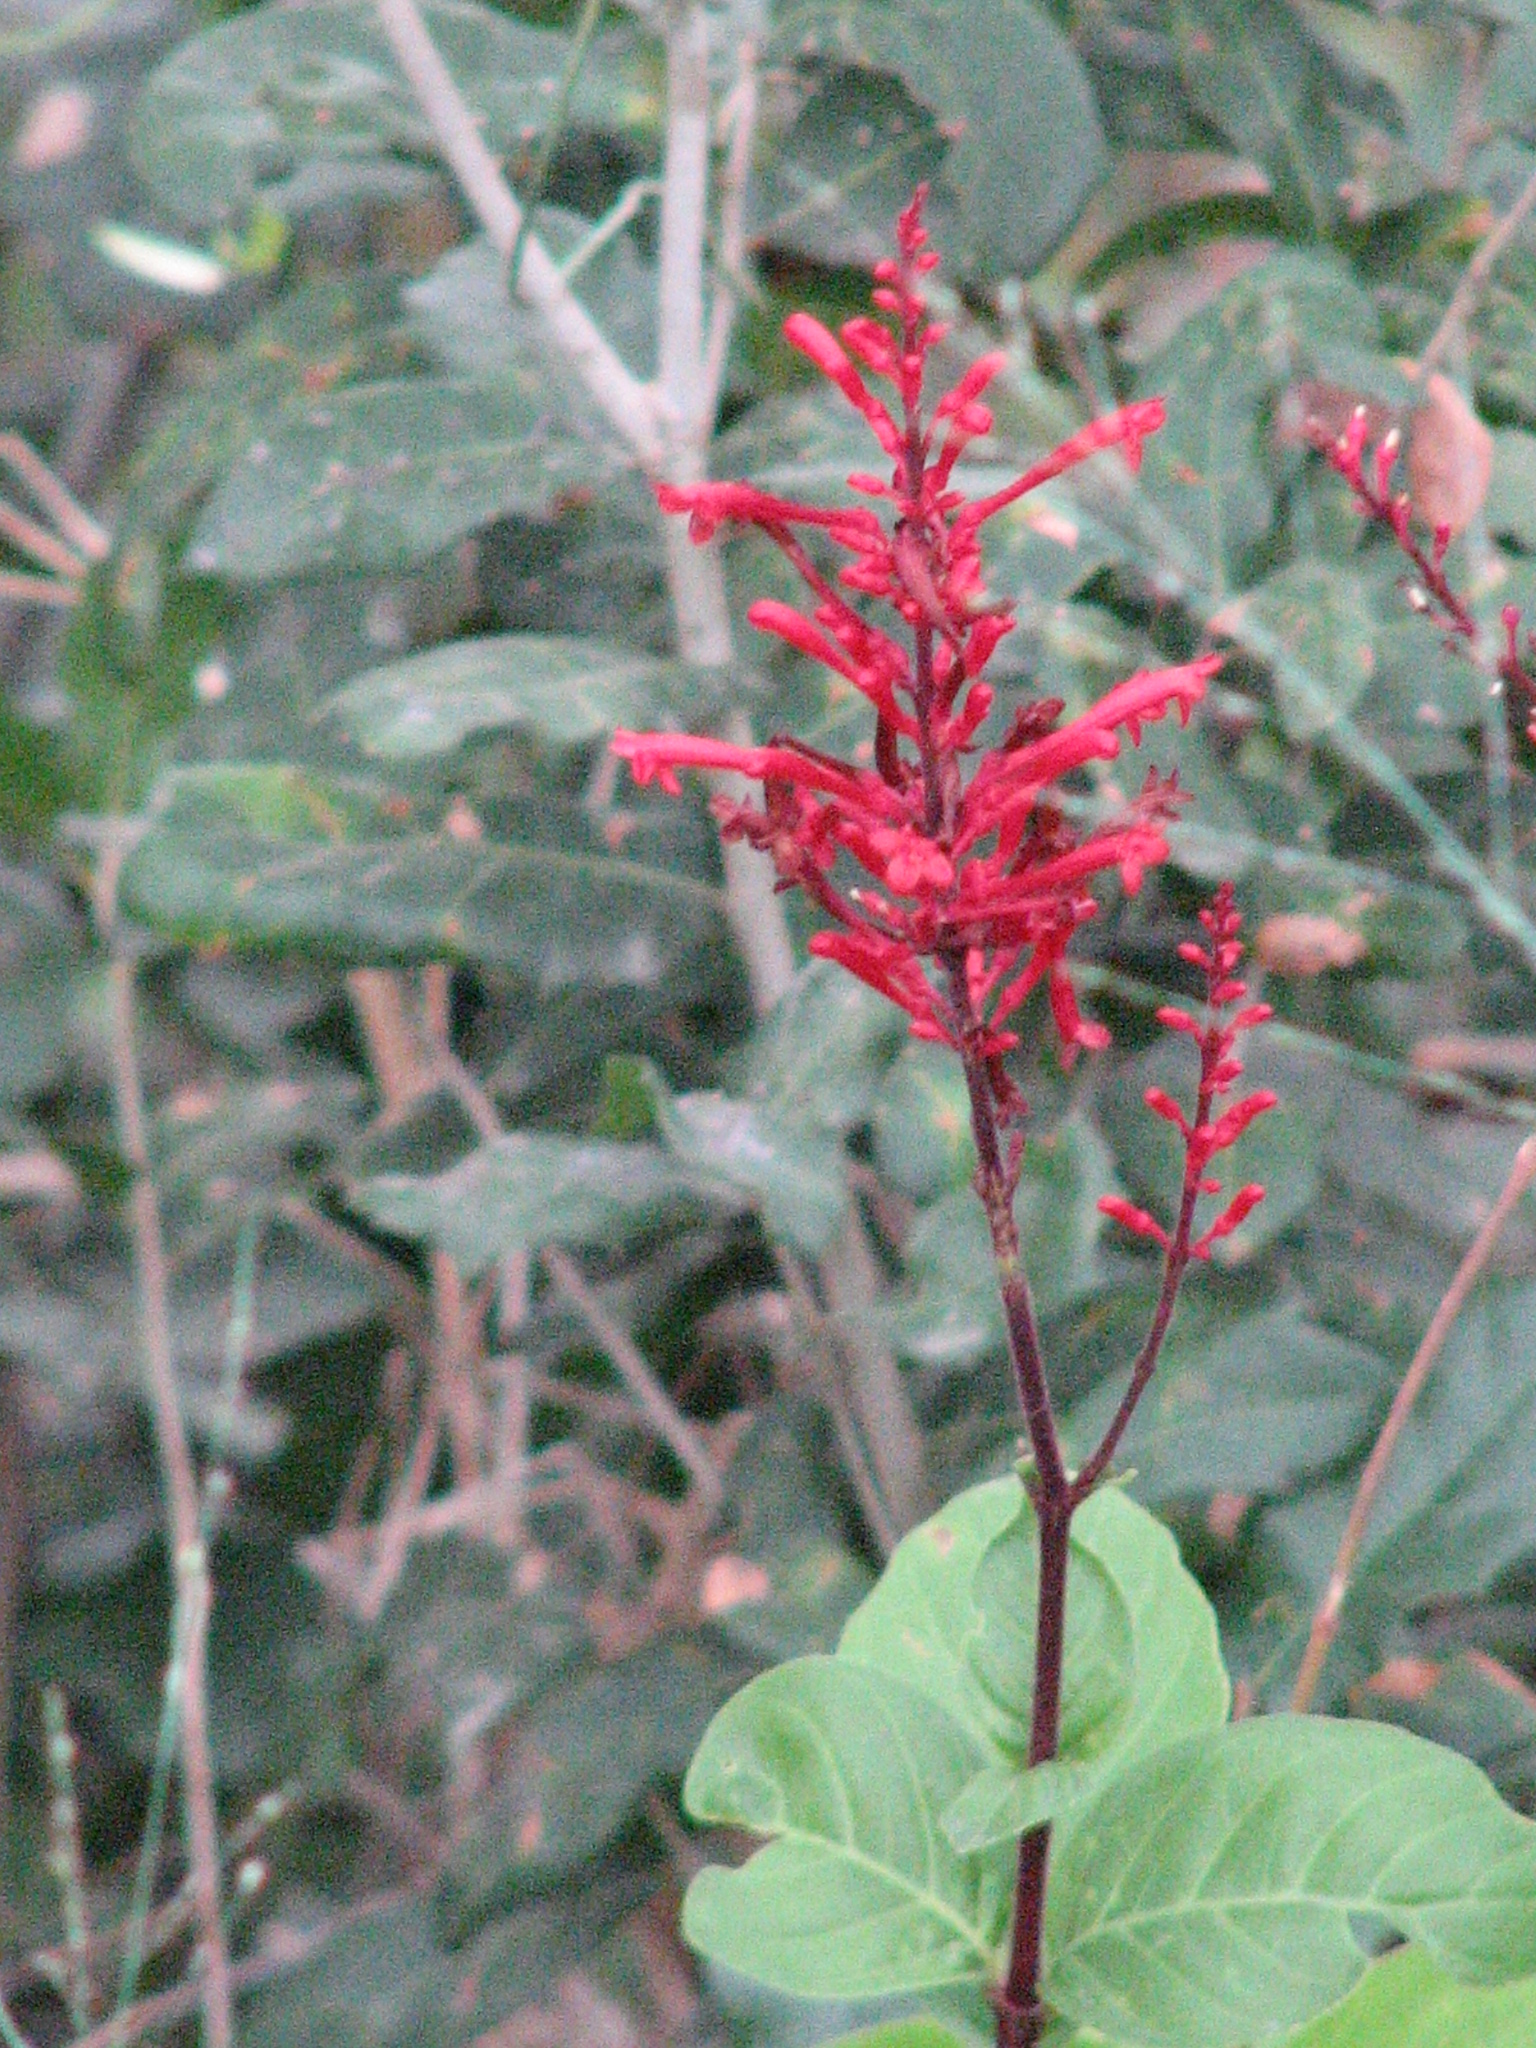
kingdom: Plantae
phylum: Tracheophyta
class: Magnoliopsida
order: Lamiales
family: Acanthaceae
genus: Odontonema
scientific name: Odontonema tubaeforme
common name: Firespike
